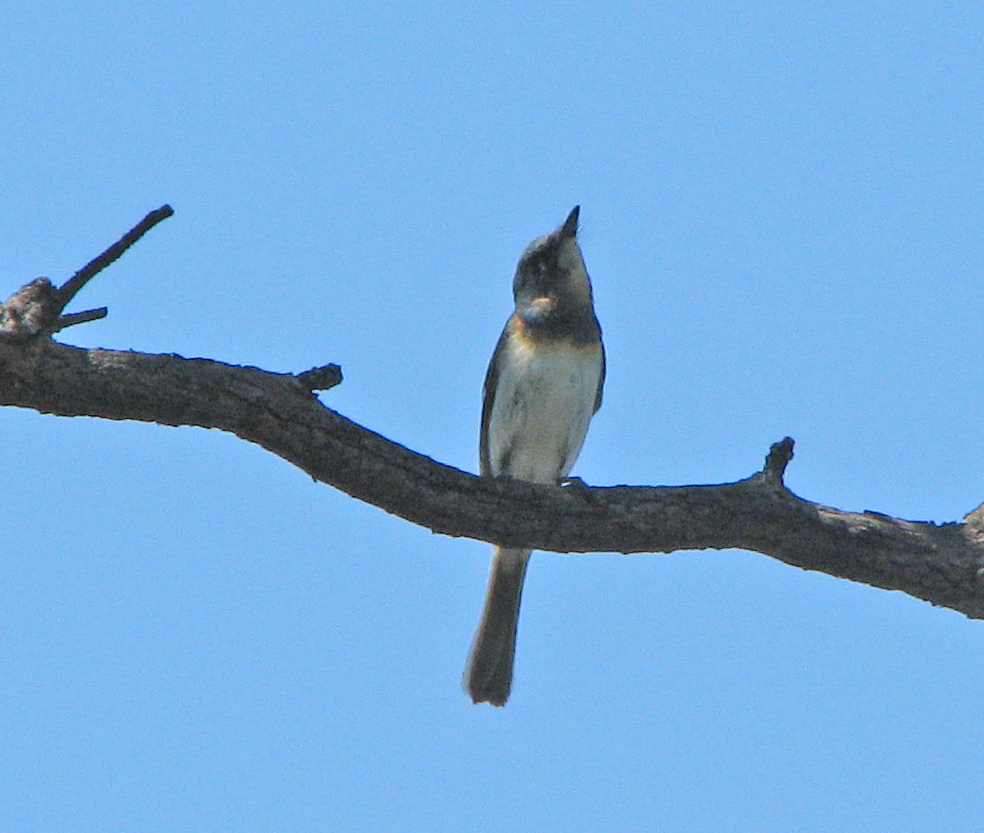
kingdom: Animalia
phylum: Chordata
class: Aves
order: Passeriformes
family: Monarchidae
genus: Myiagra
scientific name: Myiagra rubecula
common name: Leaden flycatcher
